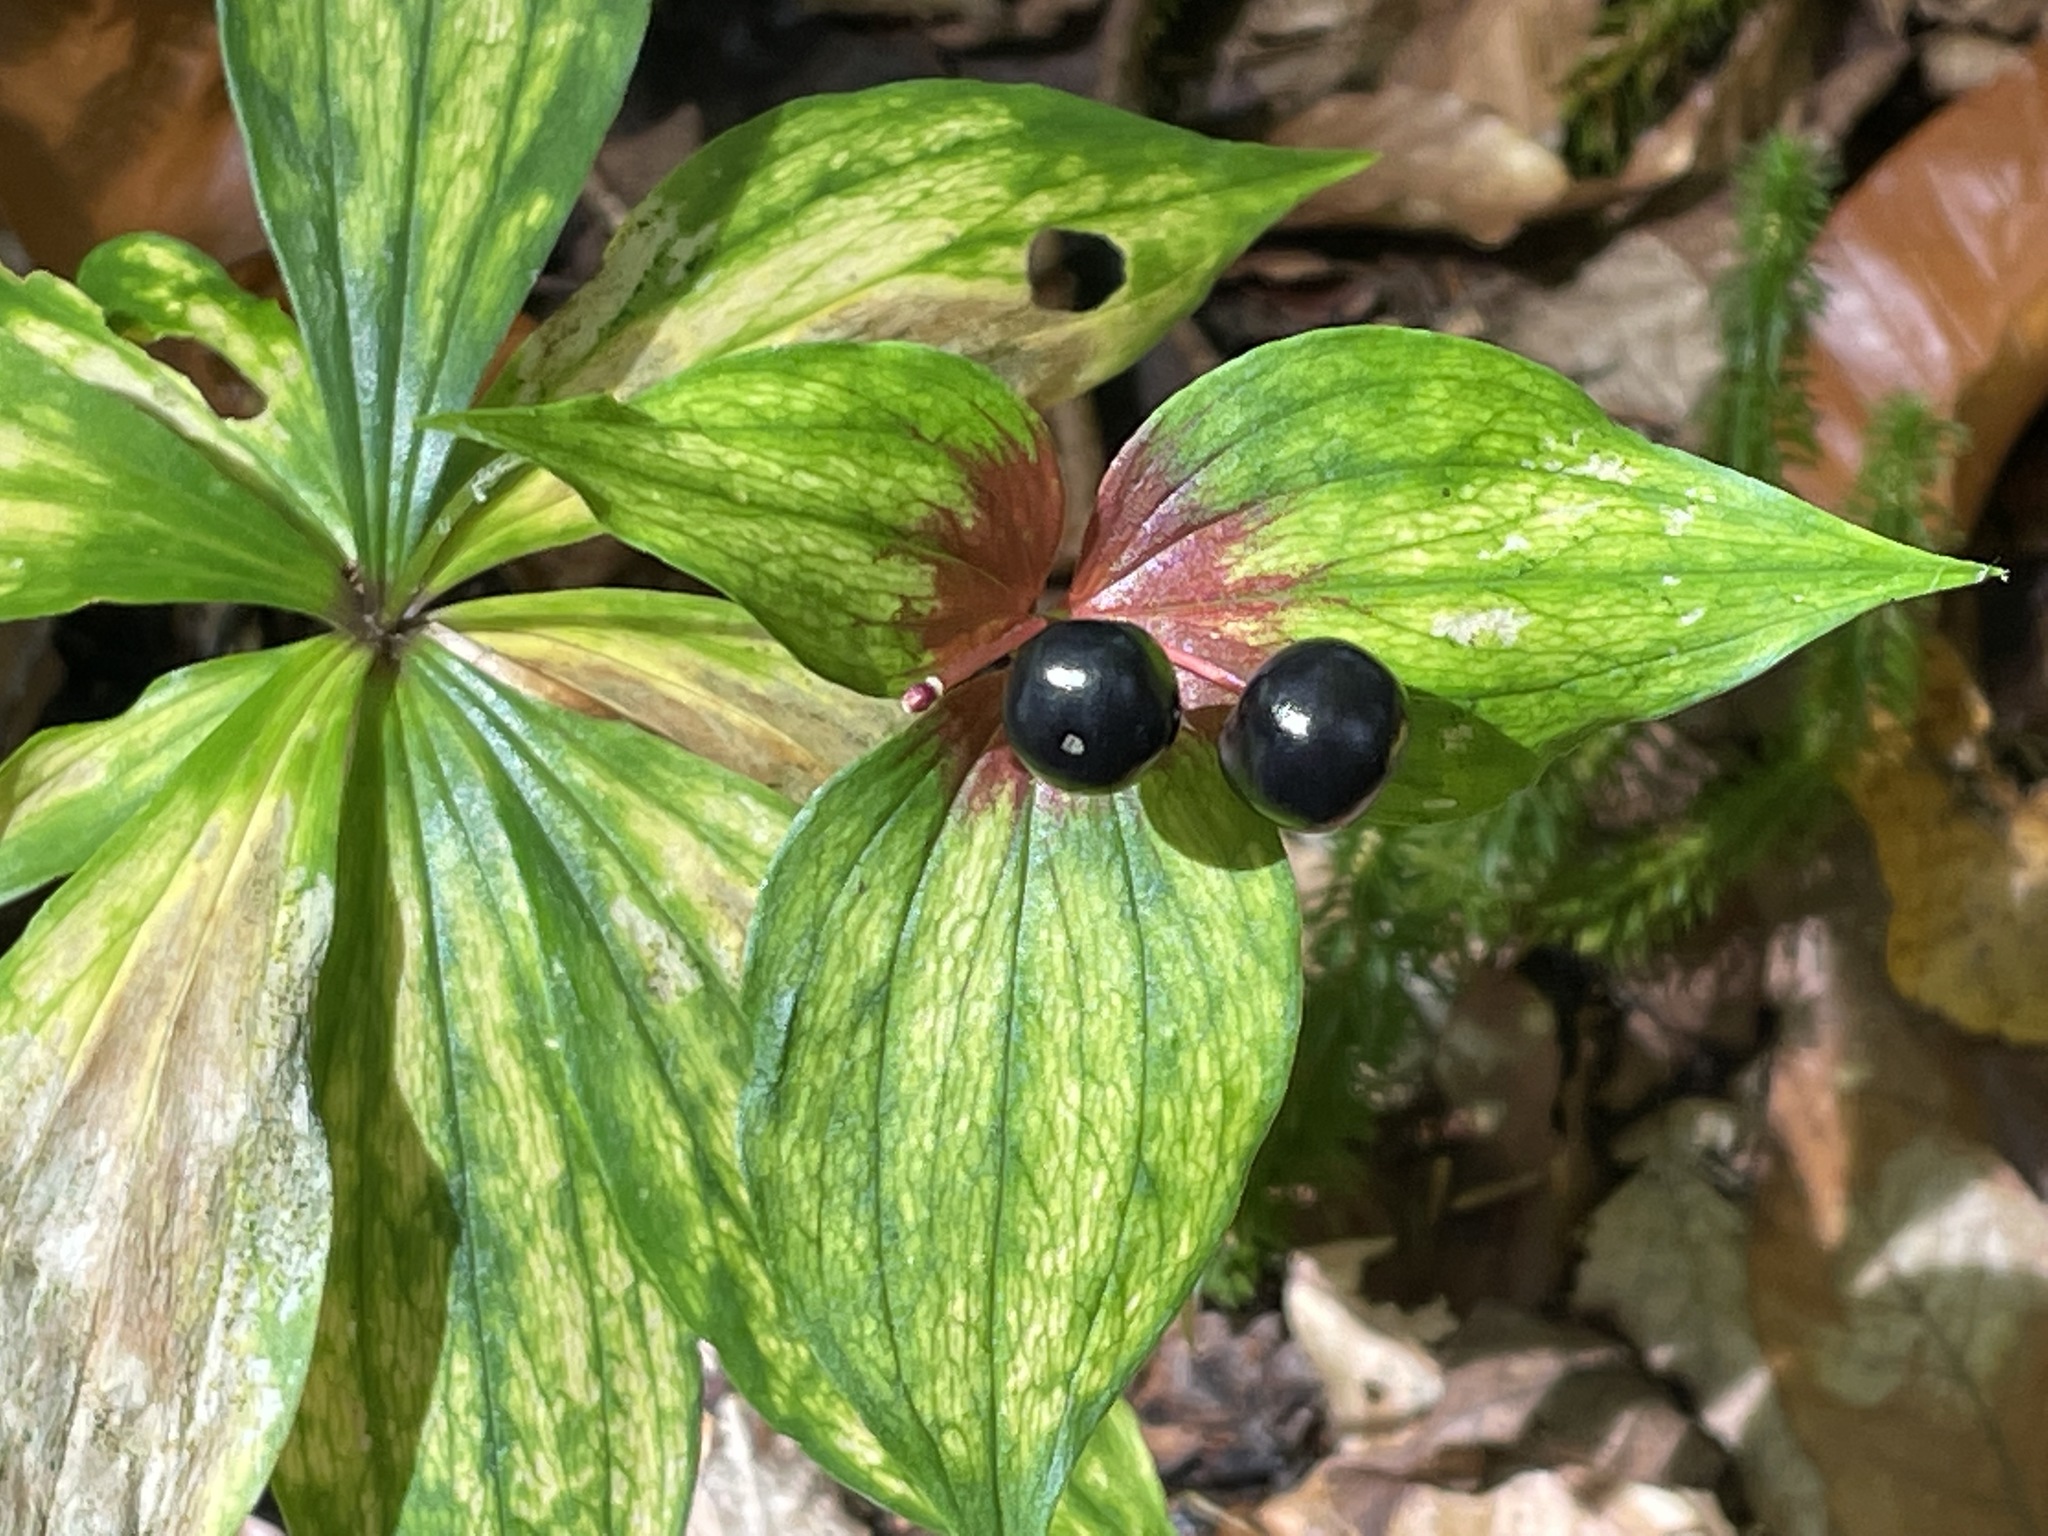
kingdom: Plantae
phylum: Tracheophyta
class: Liliopsida
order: Liliales
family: Liliaceae
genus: Medeola
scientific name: Medeola virginiana
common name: Indian cucumber-root
